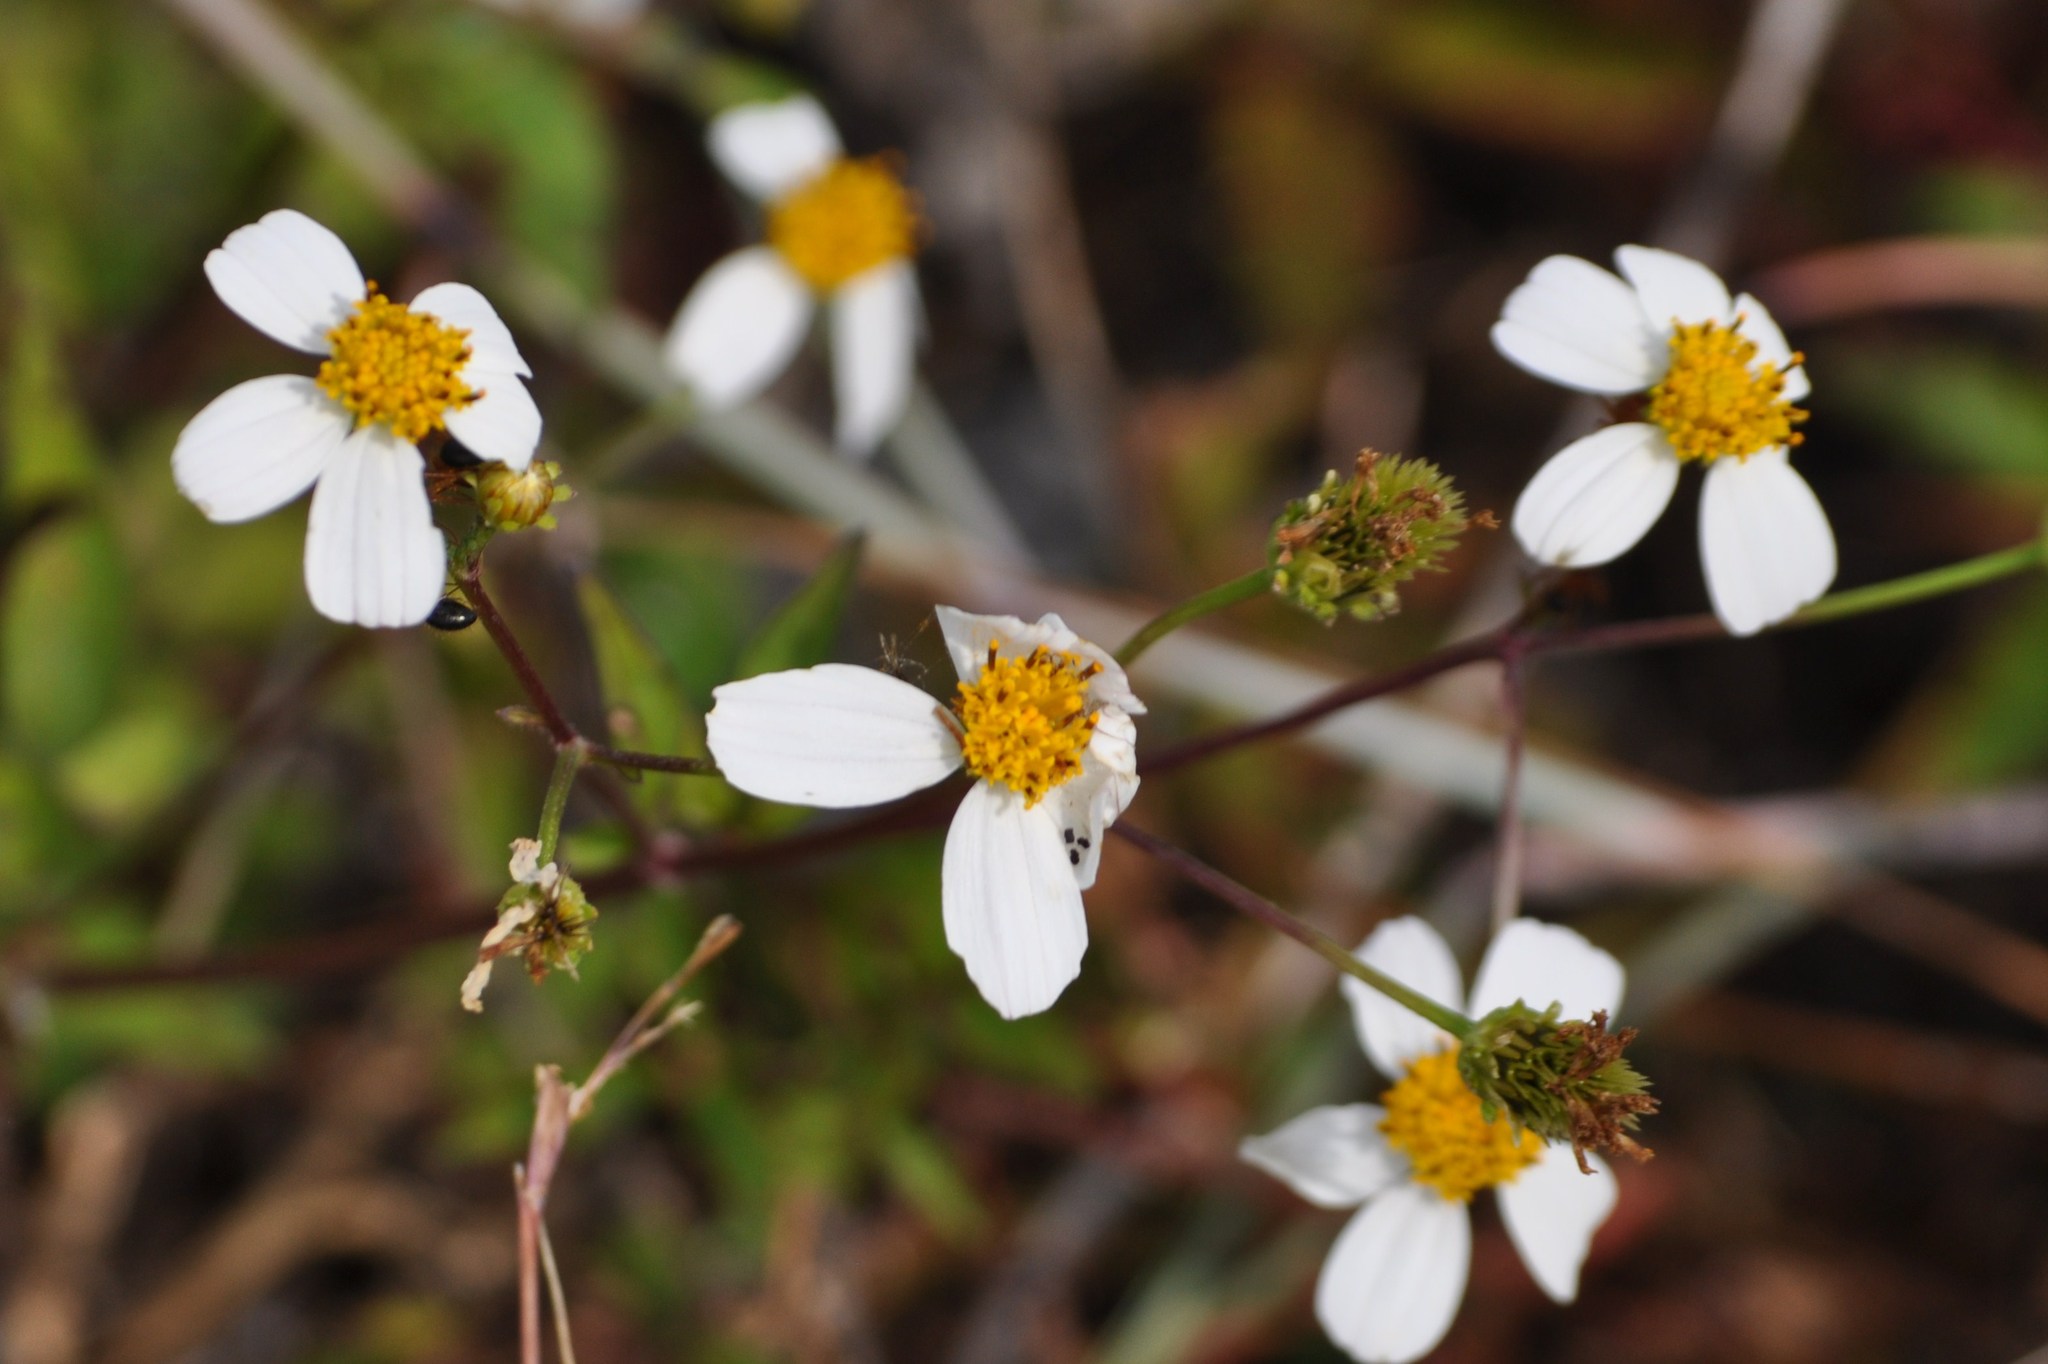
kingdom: Plantae
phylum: Tracheophyta
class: Magnoliopsida
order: Asterales
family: Asteraceae
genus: Bidens
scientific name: Bidens alba
